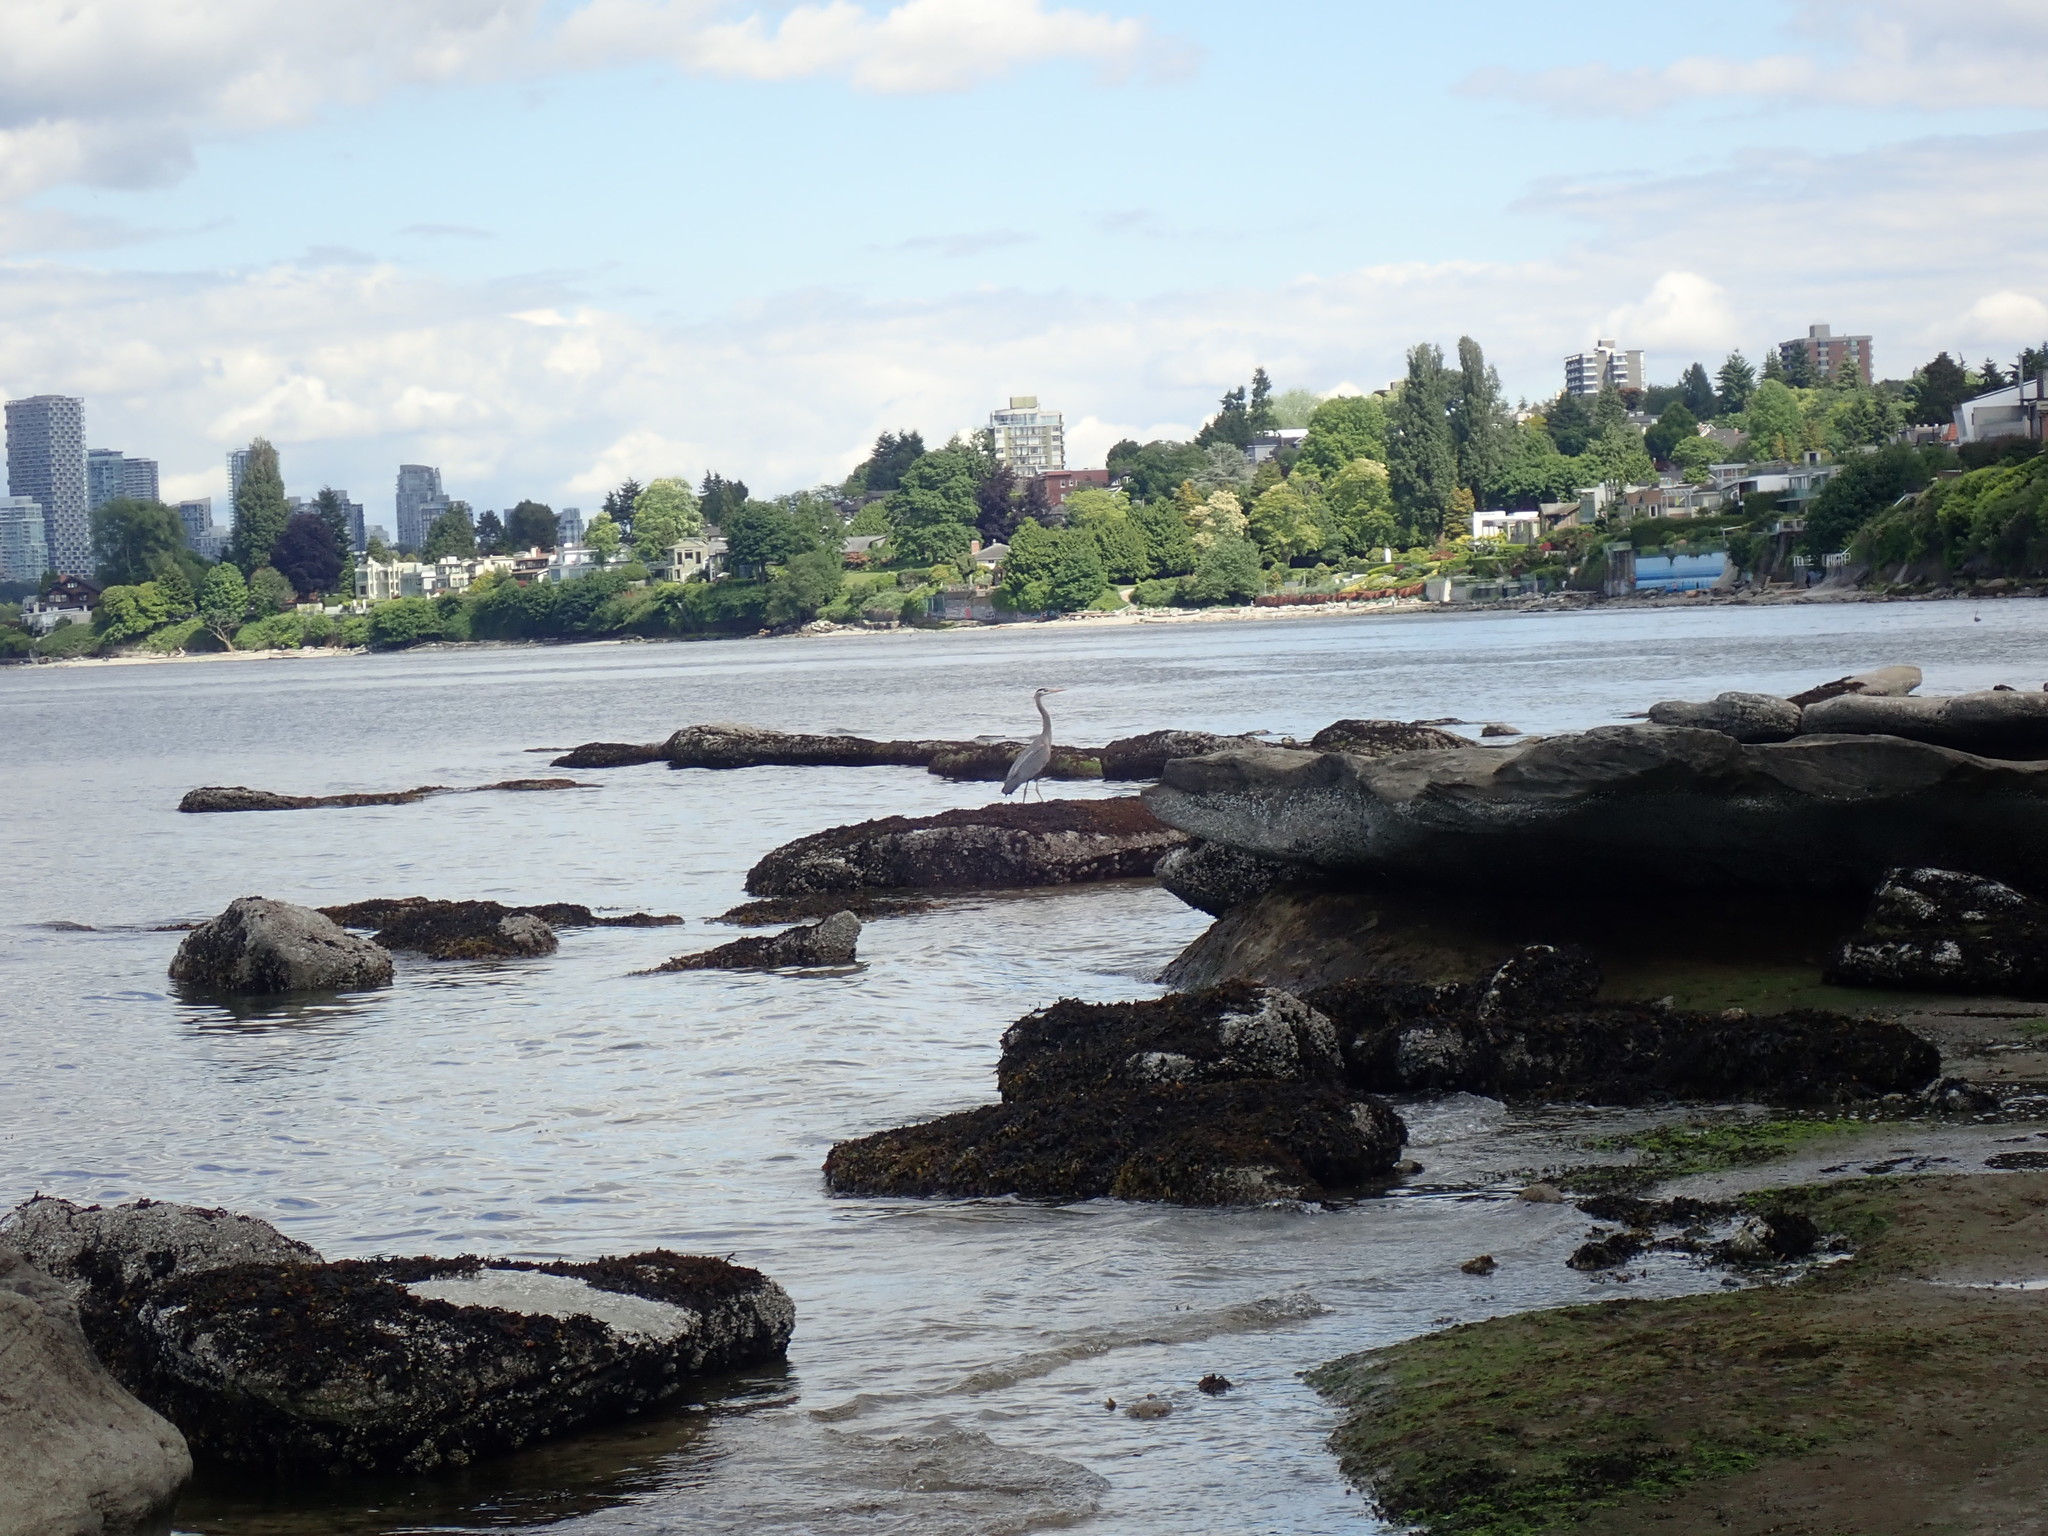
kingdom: Animalia
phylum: Chordata
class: Aves
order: Pelecaniformes
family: Ardeidae
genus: Ardea
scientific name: Ardea herodias
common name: Great blue heron
